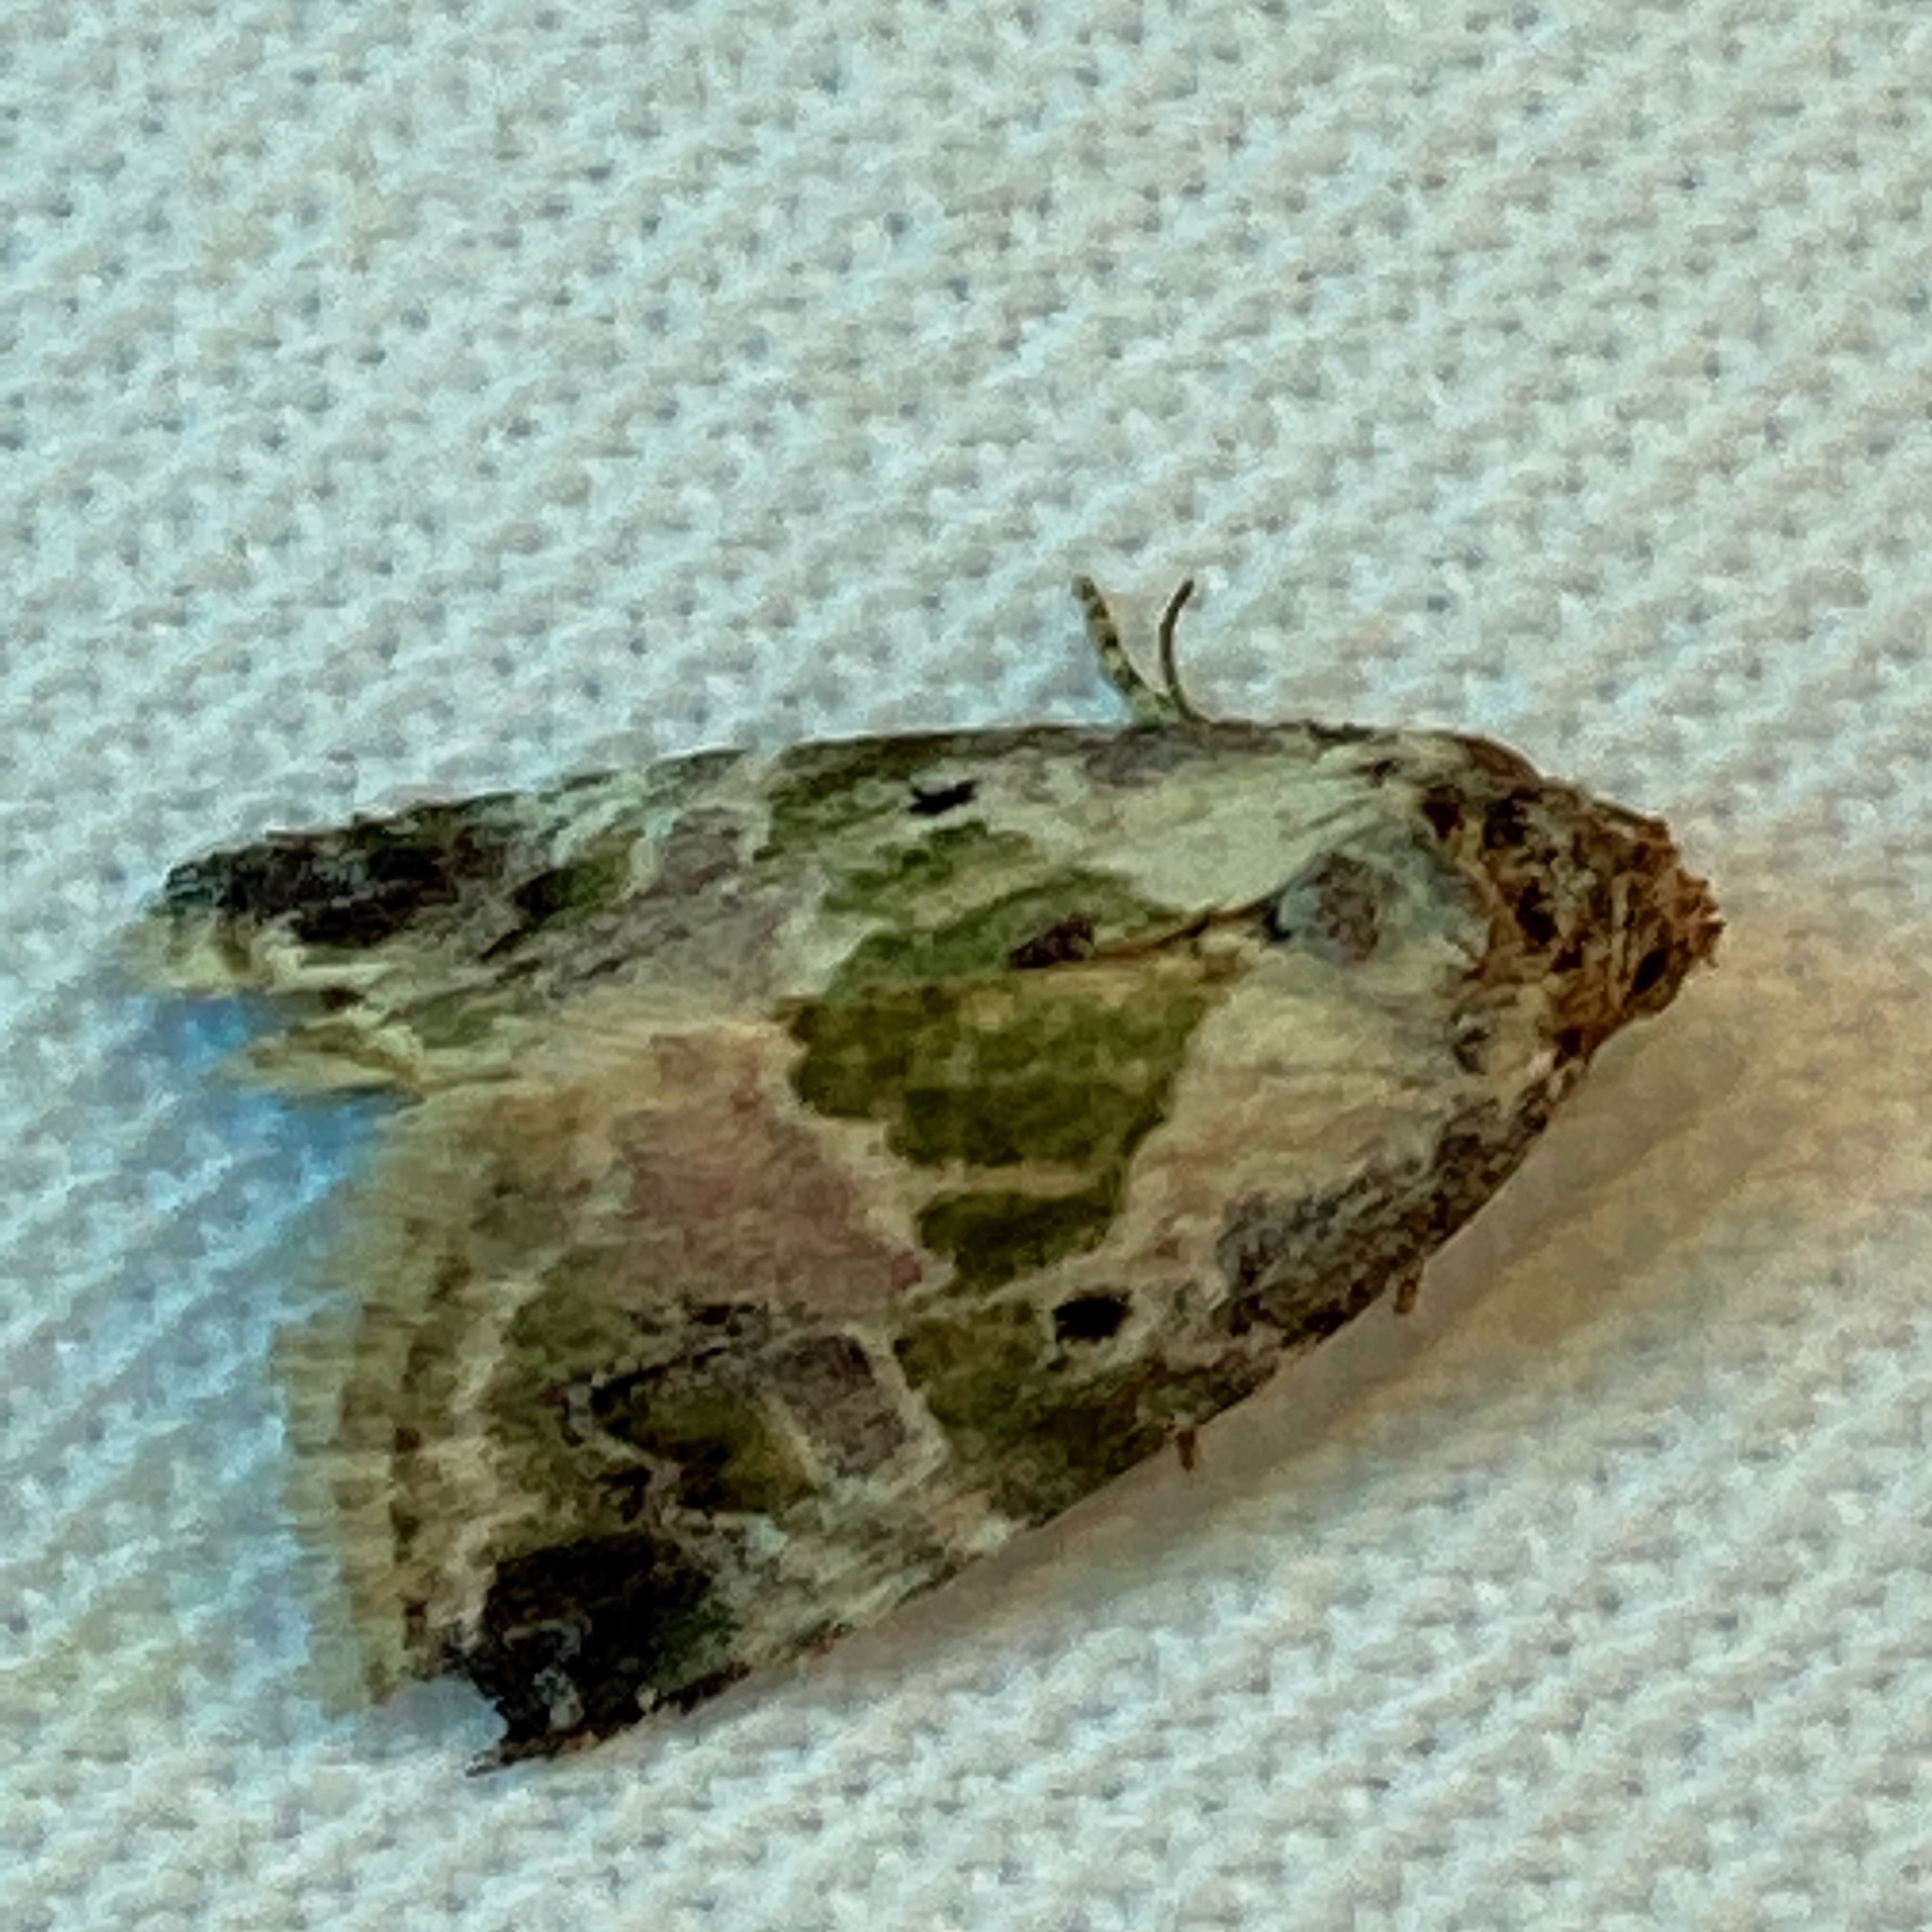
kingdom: Animalia
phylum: Arthropoda
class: Insecta
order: Lepidoptera
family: Noctuidae
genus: Maliattha
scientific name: Maliattha synochitis
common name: Black-dotted glyph
